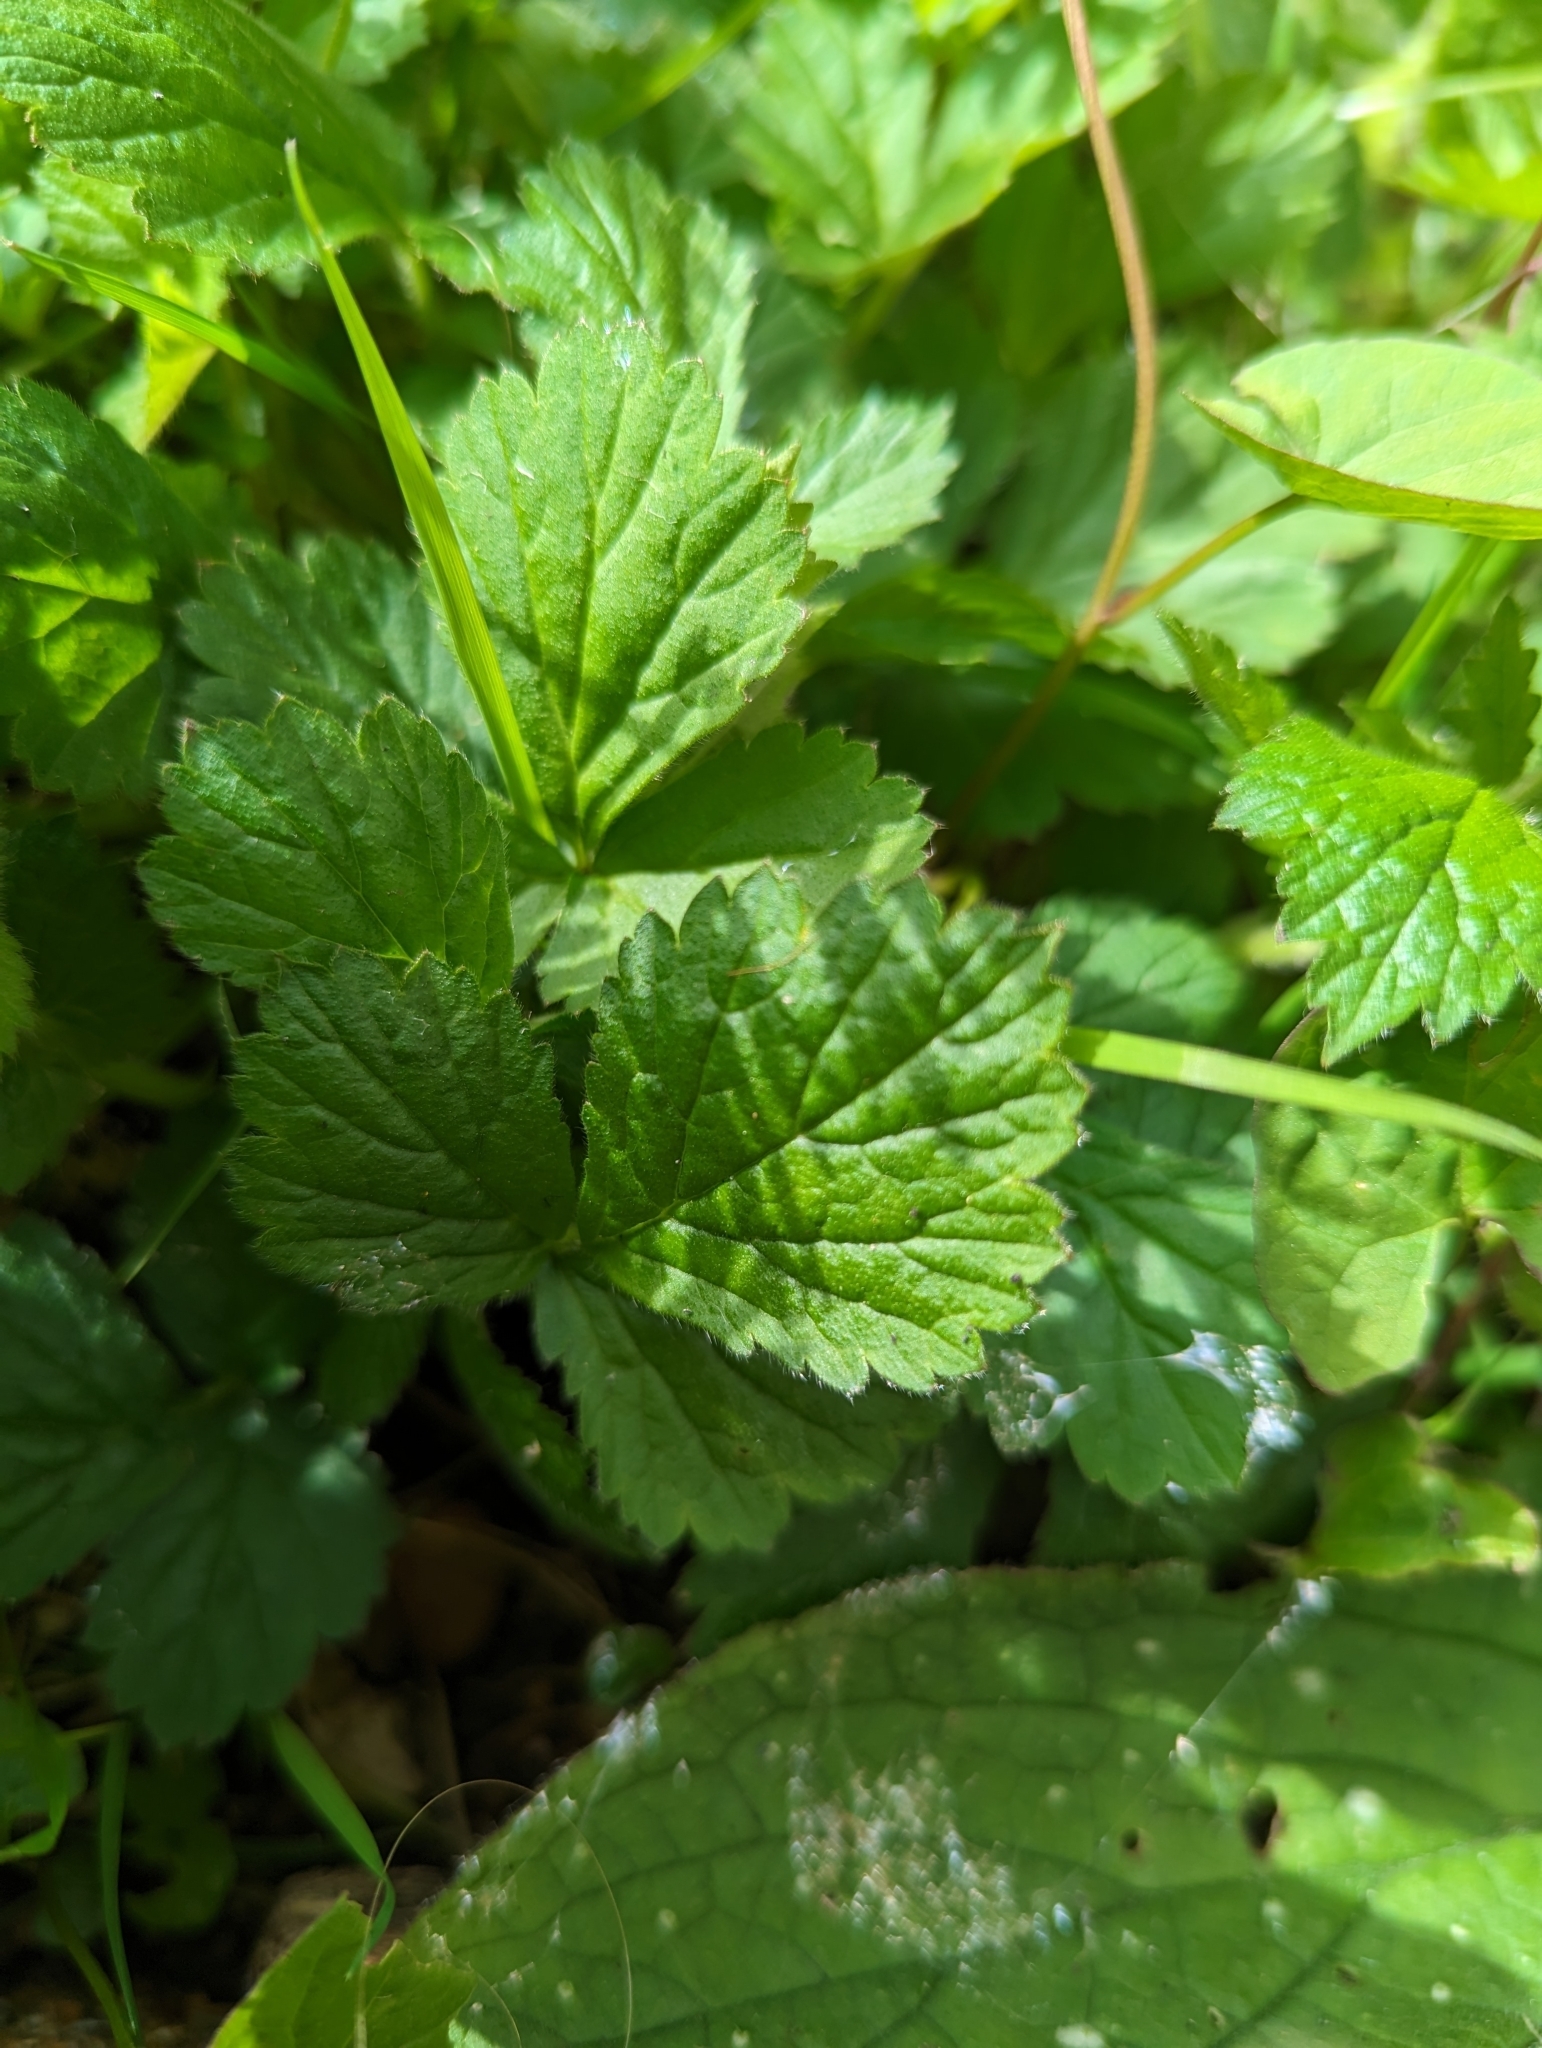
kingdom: Plantae
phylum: Tracheophyta
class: Magnoliopsida
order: Rosales
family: Rosaceae
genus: Geum
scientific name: Geum urbanum
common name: Wood avens
